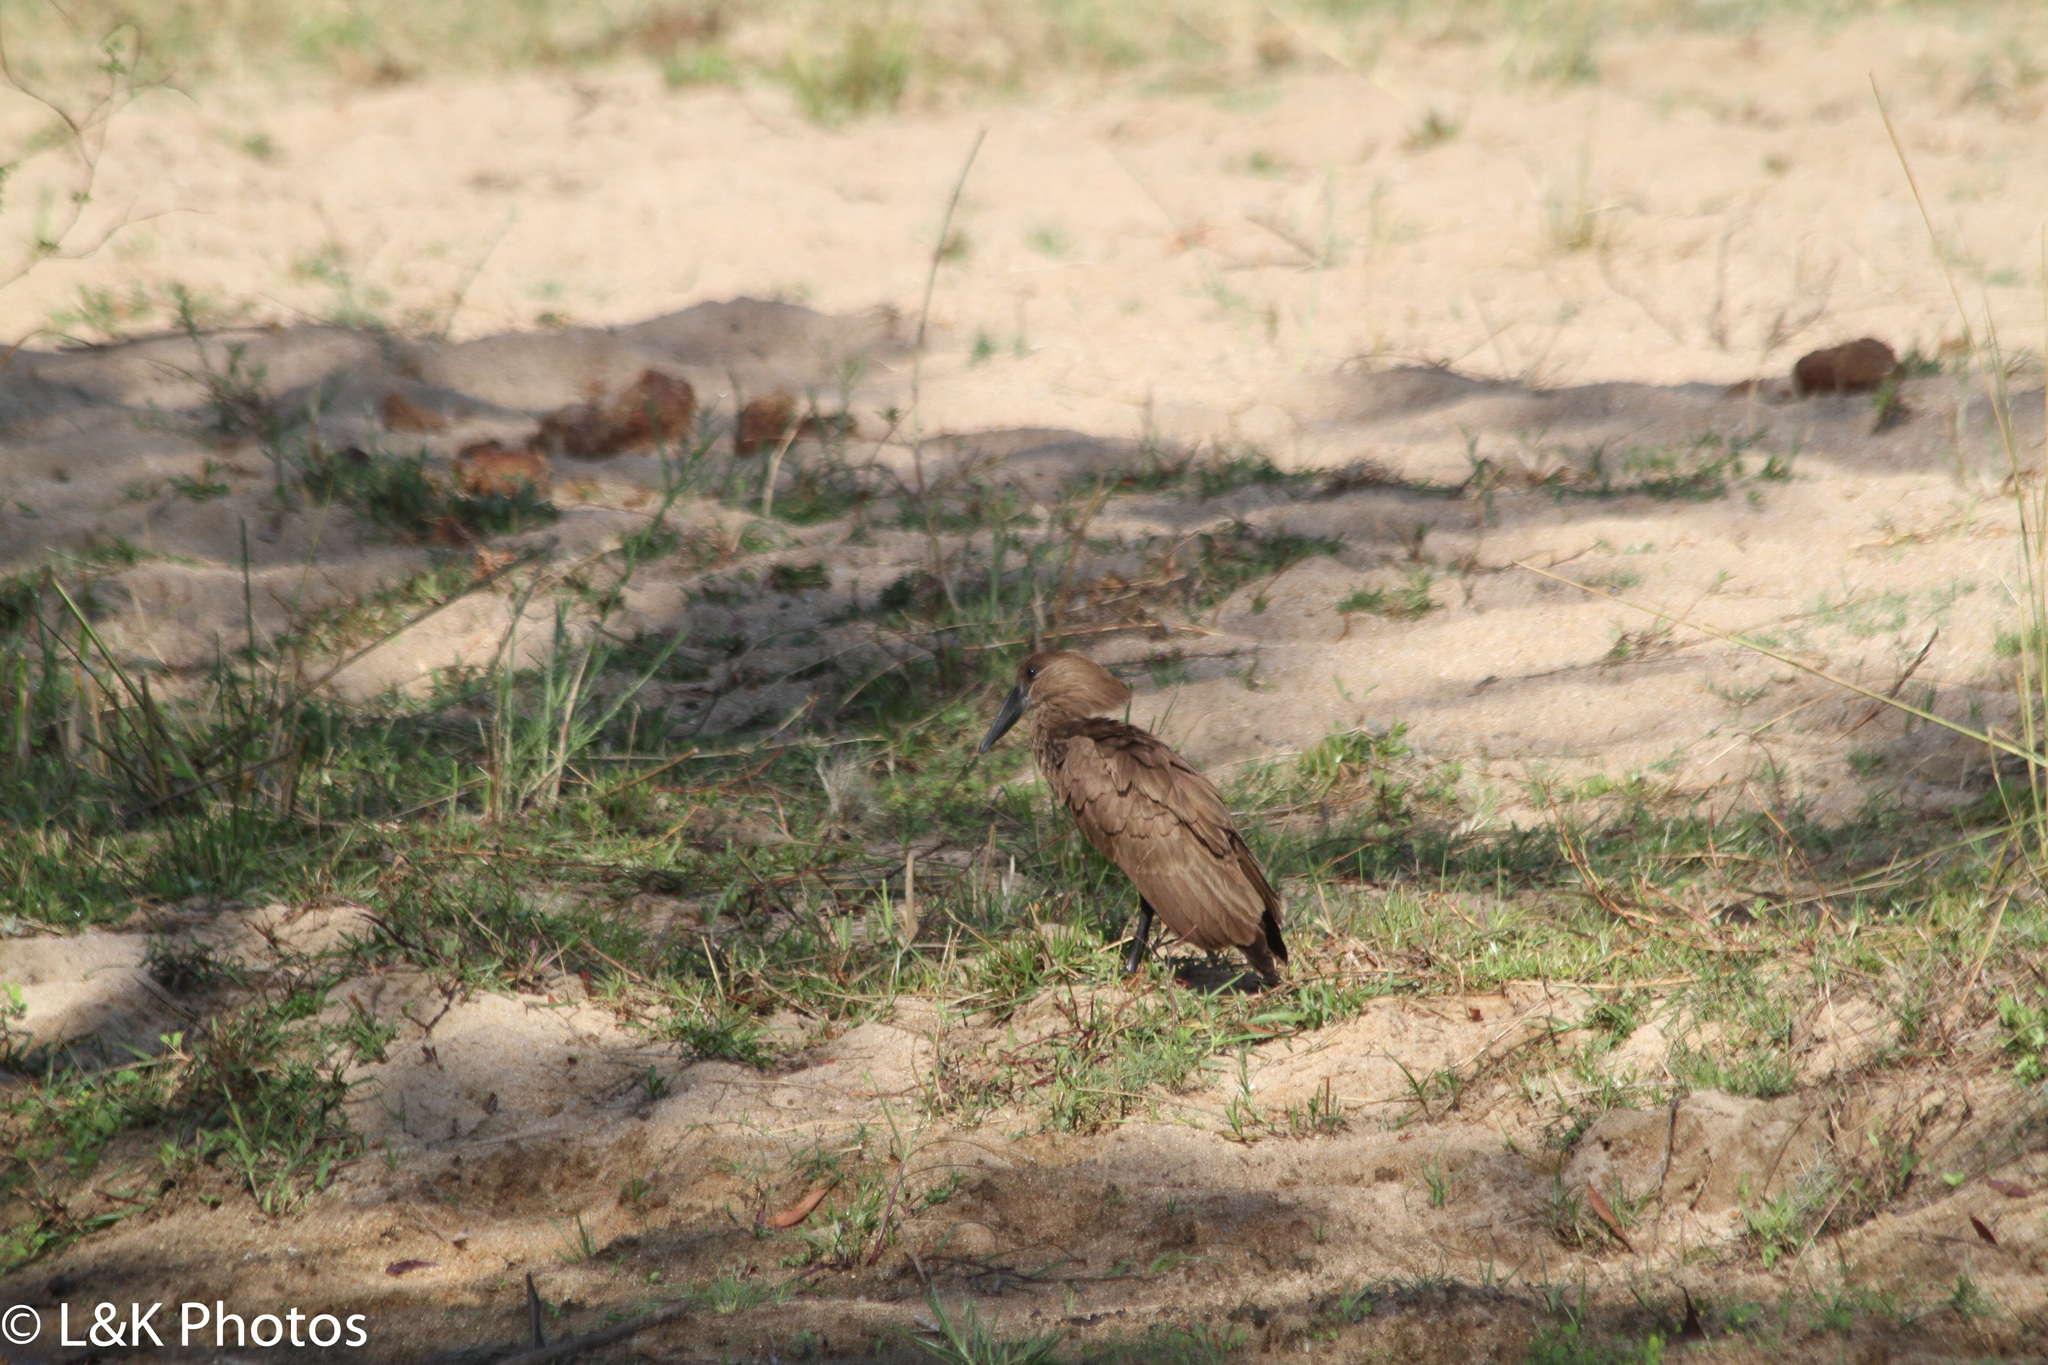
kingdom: Animalia
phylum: Chordata
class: Aves
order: Pelecaniformes
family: Scopidae
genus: Scopus
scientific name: Scopus umbretta
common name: Hamerkop
